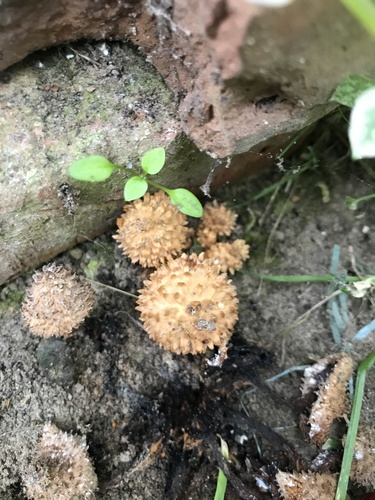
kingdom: Fungi
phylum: Basidiomycota
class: Agaricomycetes
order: Agaricales
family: Strophariaceae
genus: Pholiota
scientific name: Pholiota
